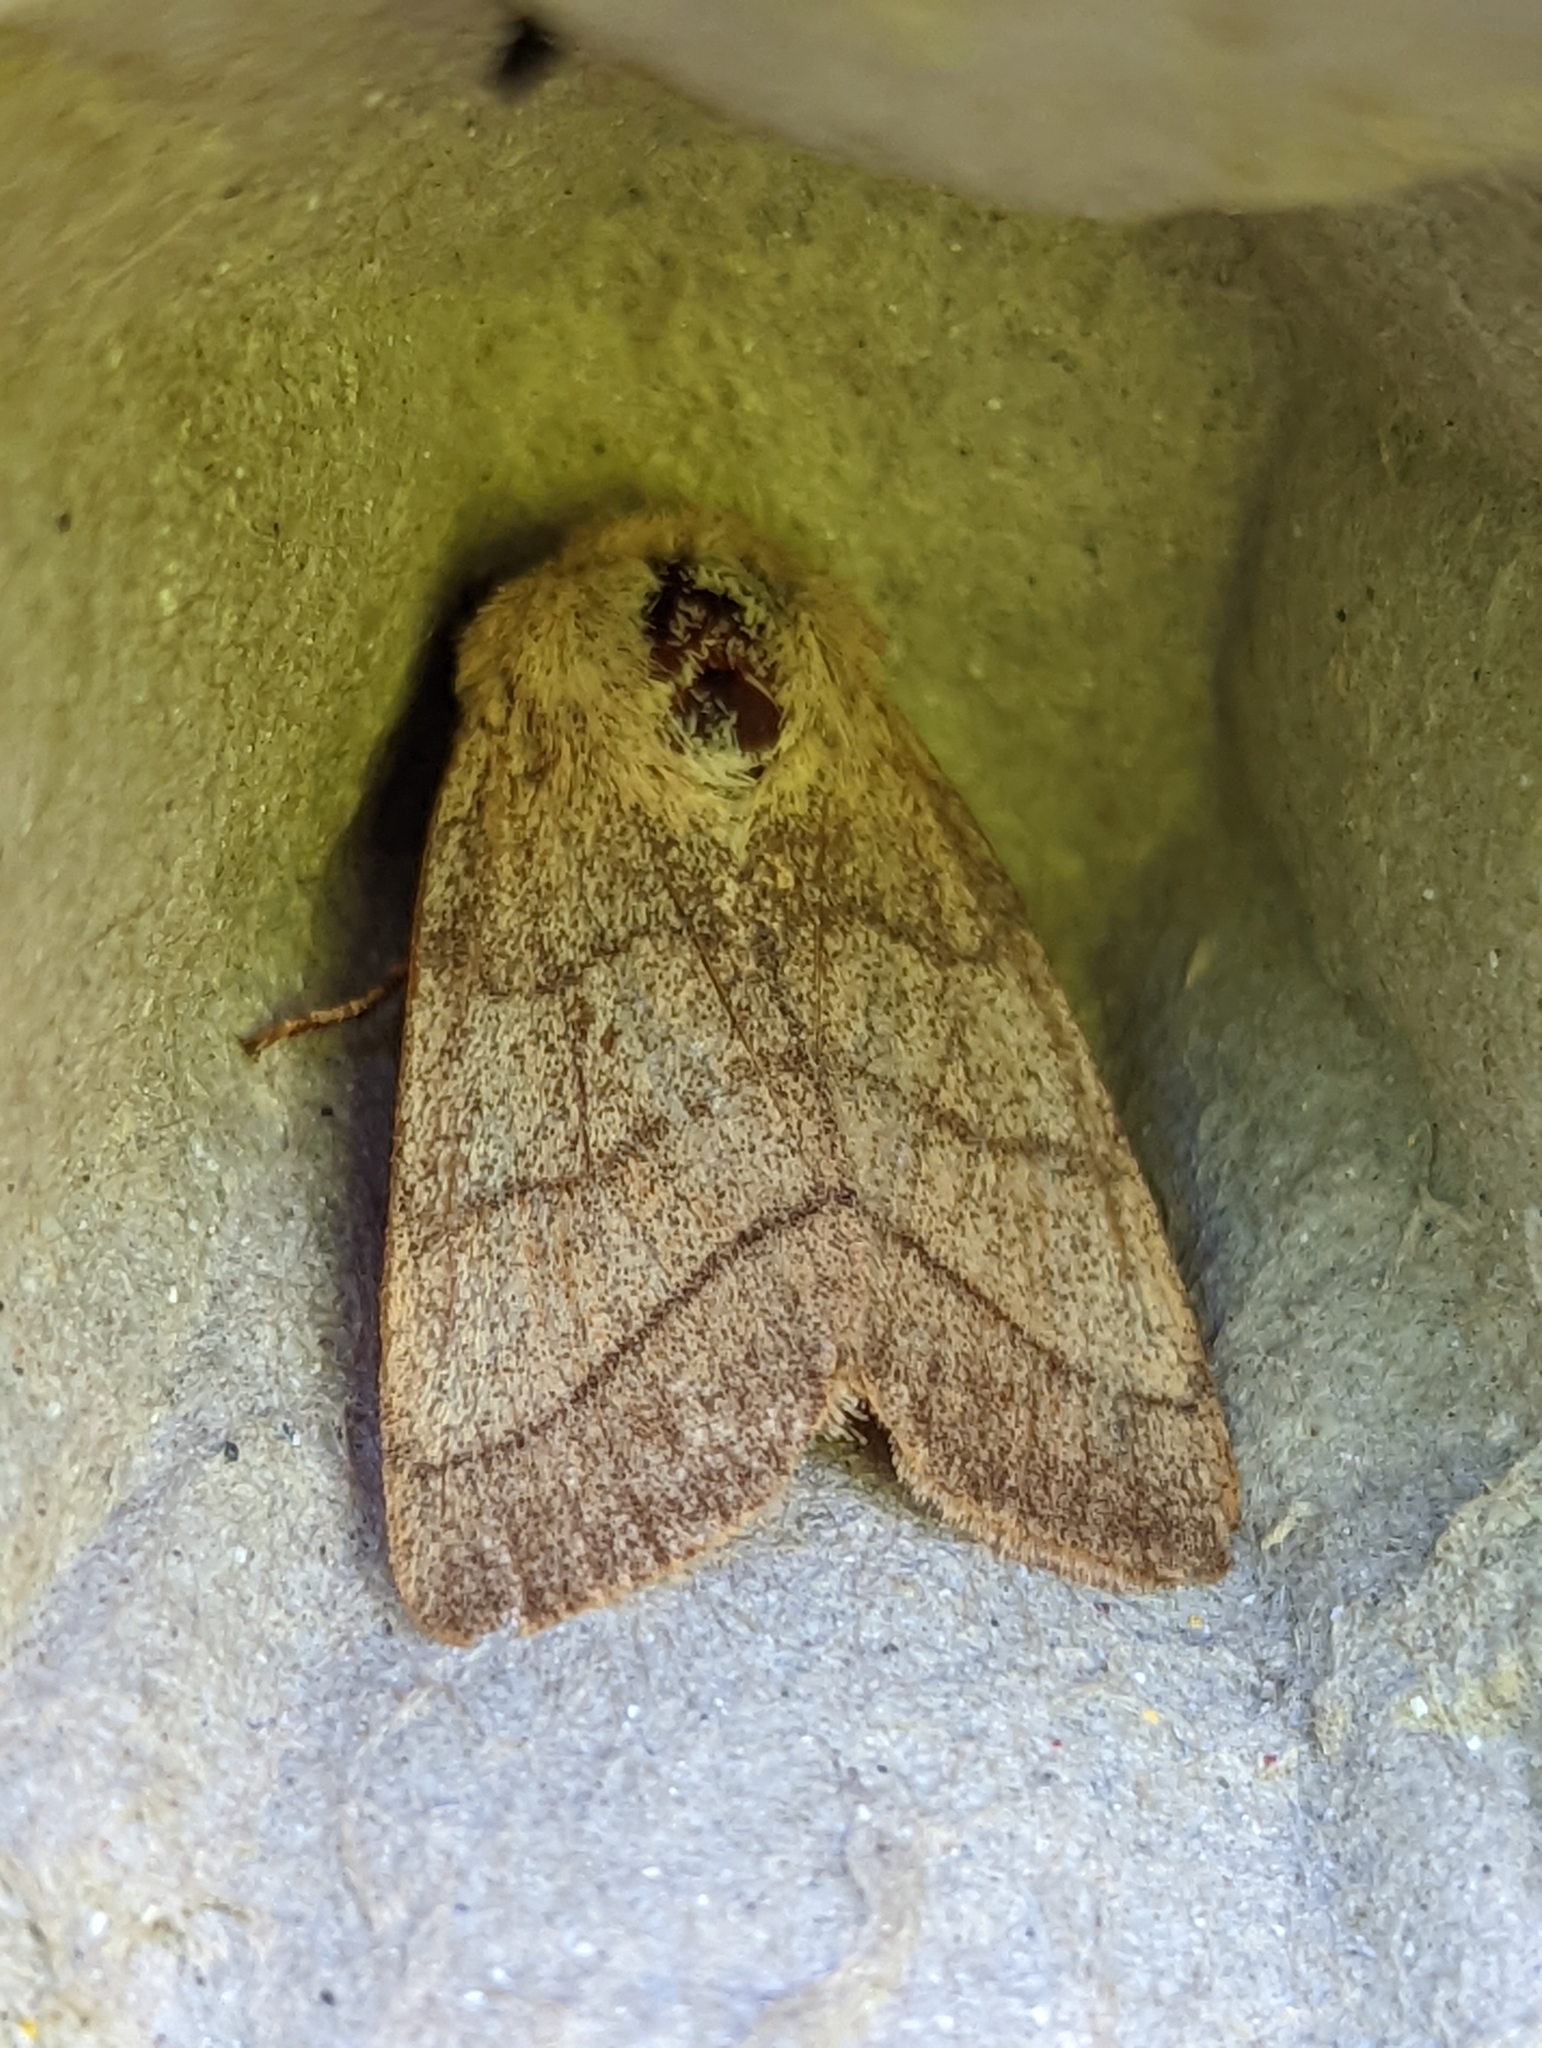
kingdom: Animalia
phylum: Arthropoda
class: Insecta
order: Lepidoptera
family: Noctuidae
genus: Charanyca
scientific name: Charanyca trigrammica
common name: Treble lines
